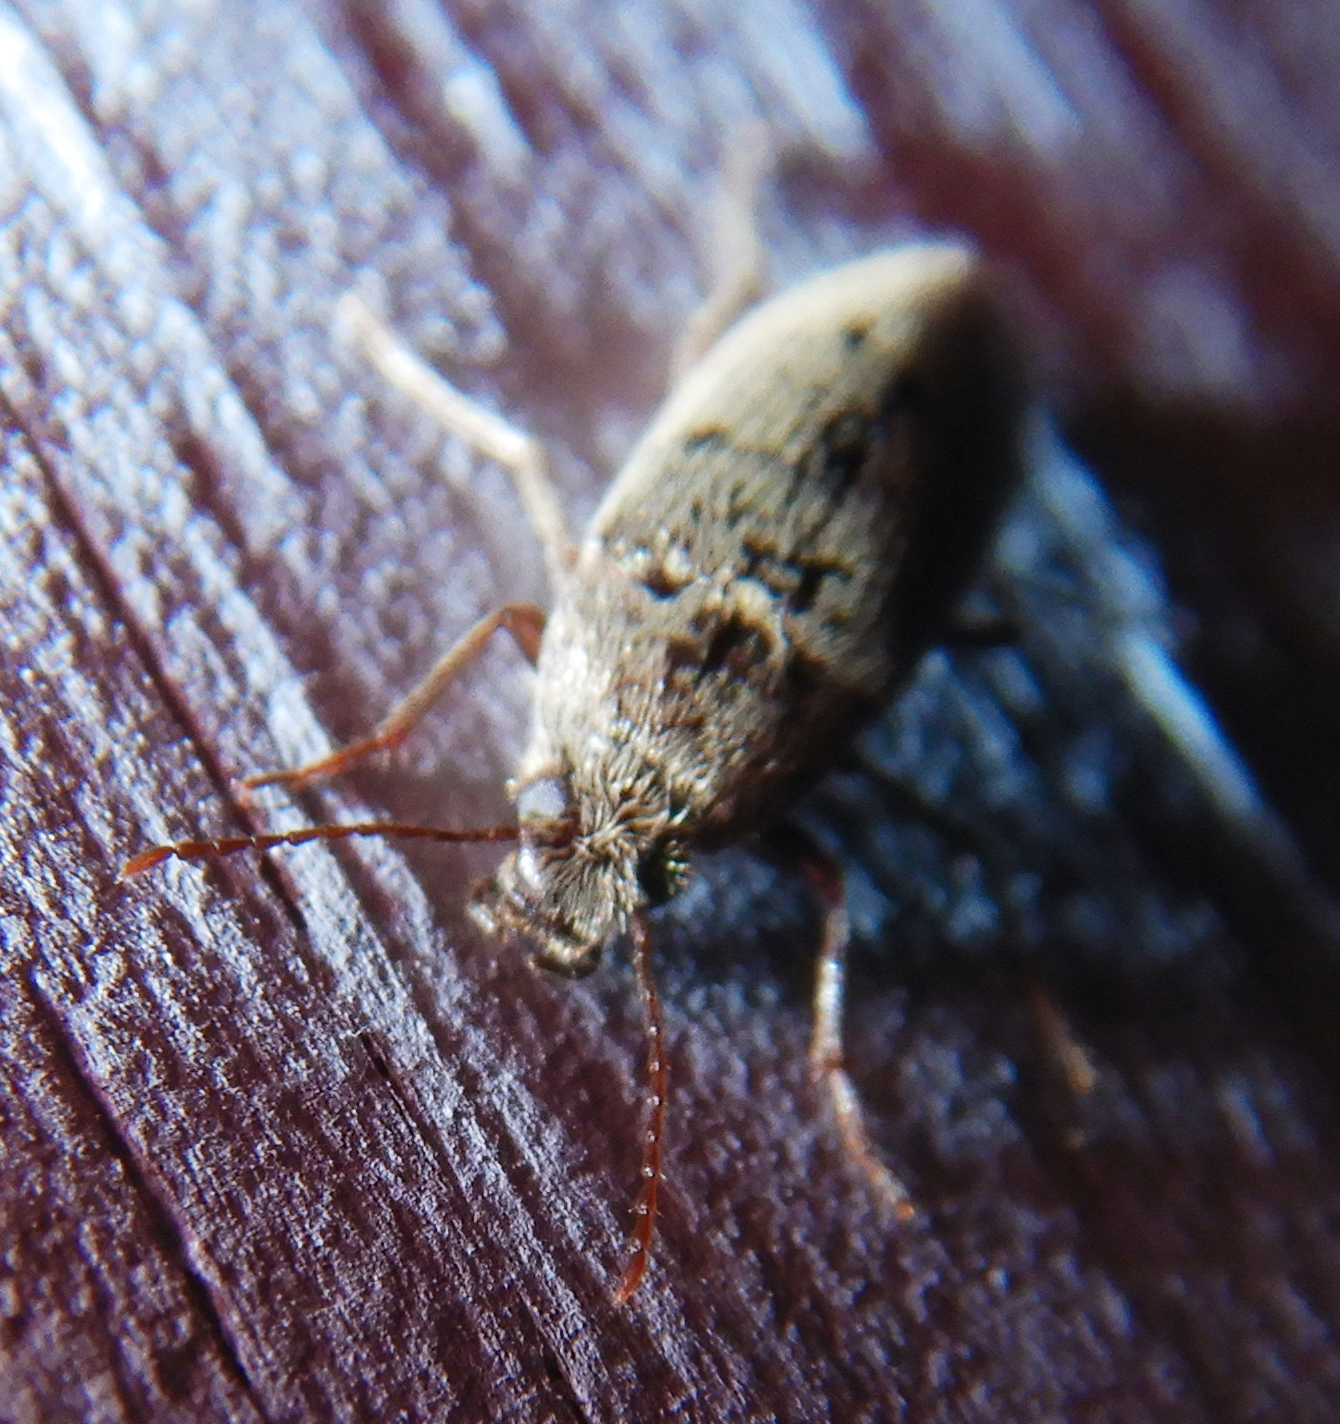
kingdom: Animalia
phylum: Arthropoda
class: Insecta
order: Coleoptera
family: Synchroidae
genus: Synchroa
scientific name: Synchroa punctata
